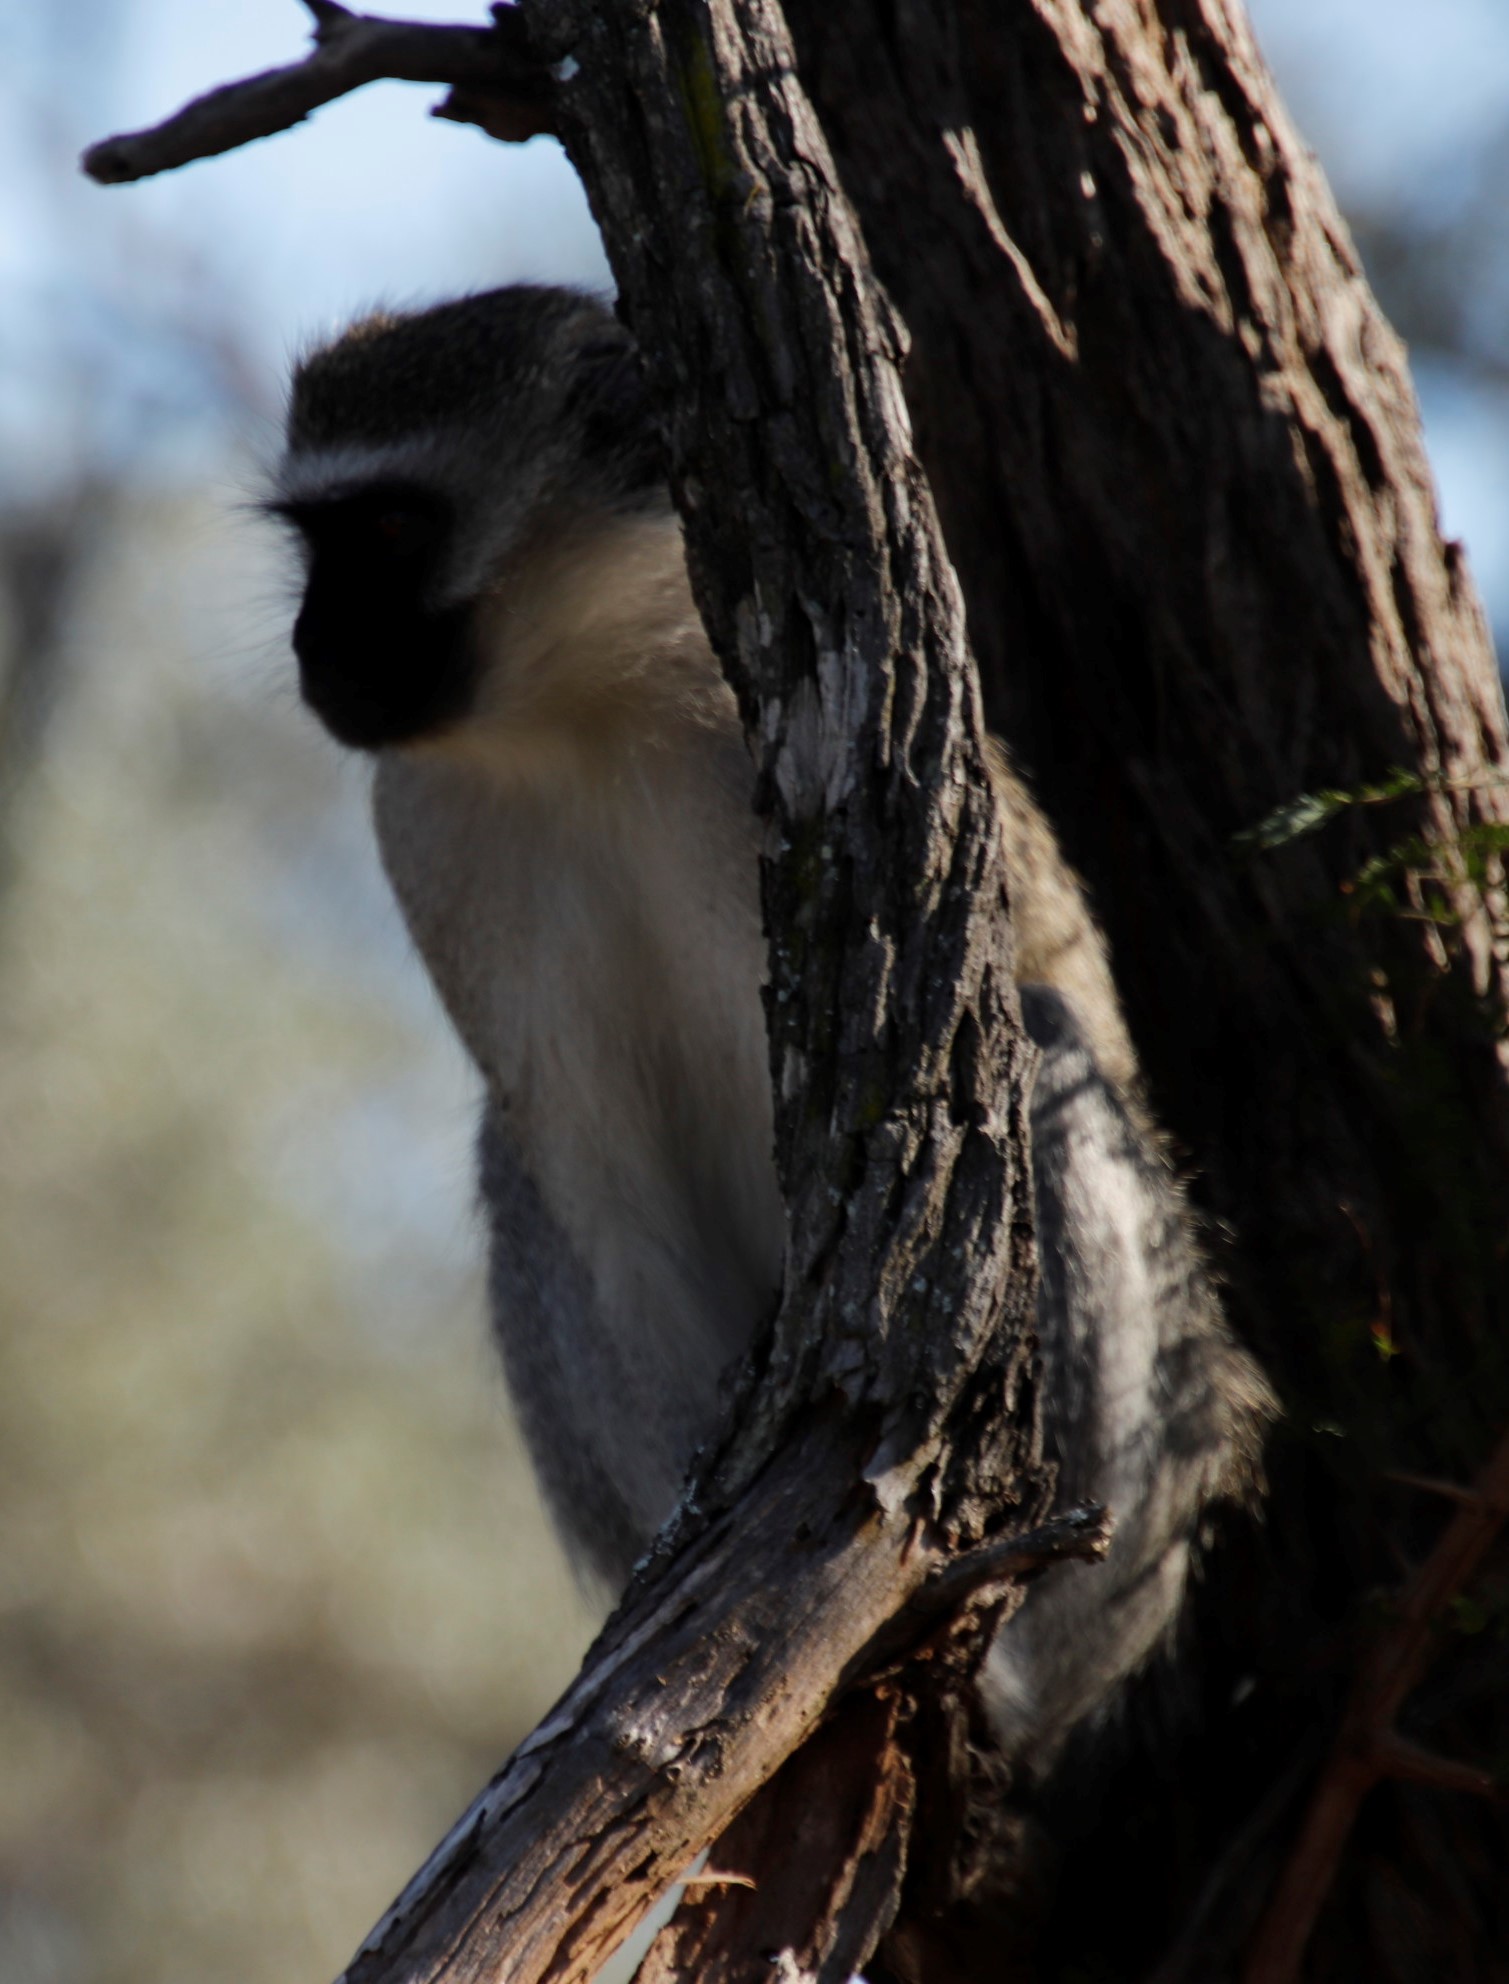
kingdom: Animalia
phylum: Chordata
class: Mammalia
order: Primates
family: Cercopithecidae
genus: Chlorocebus
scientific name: Chlorocebus pygerythrus
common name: Vervet monkey
